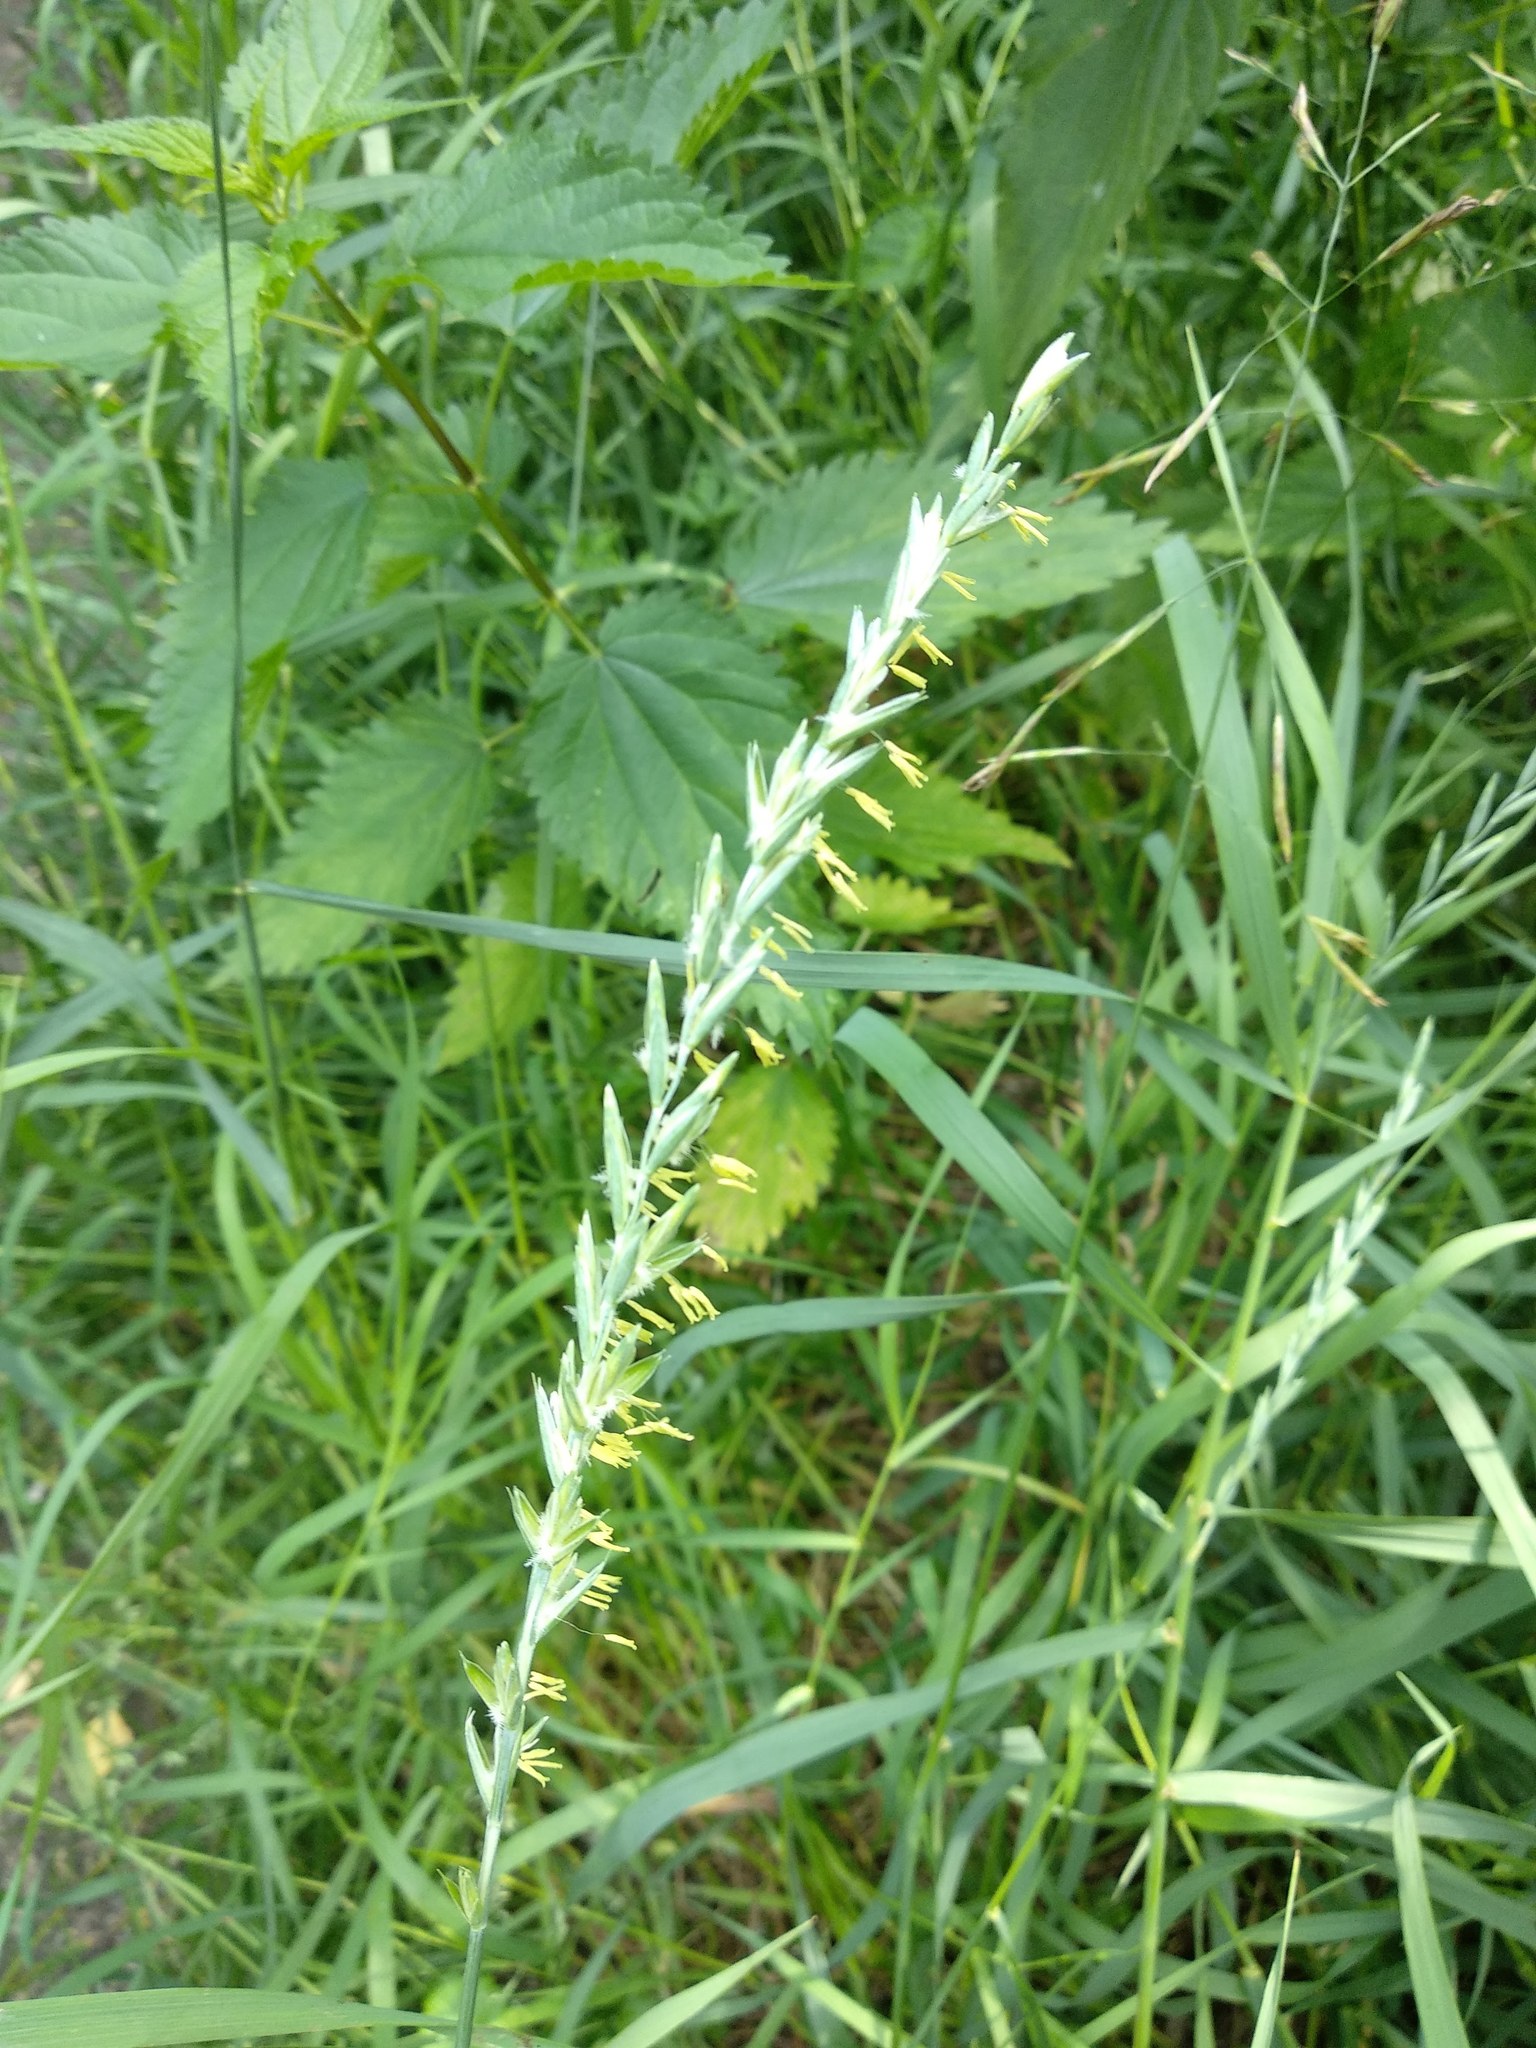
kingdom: Plantae
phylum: Tracheophyta
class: Liliopsida
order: Poales
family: Poaceae
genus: Elymus
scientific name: Elymus repens
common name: Quackgrass
